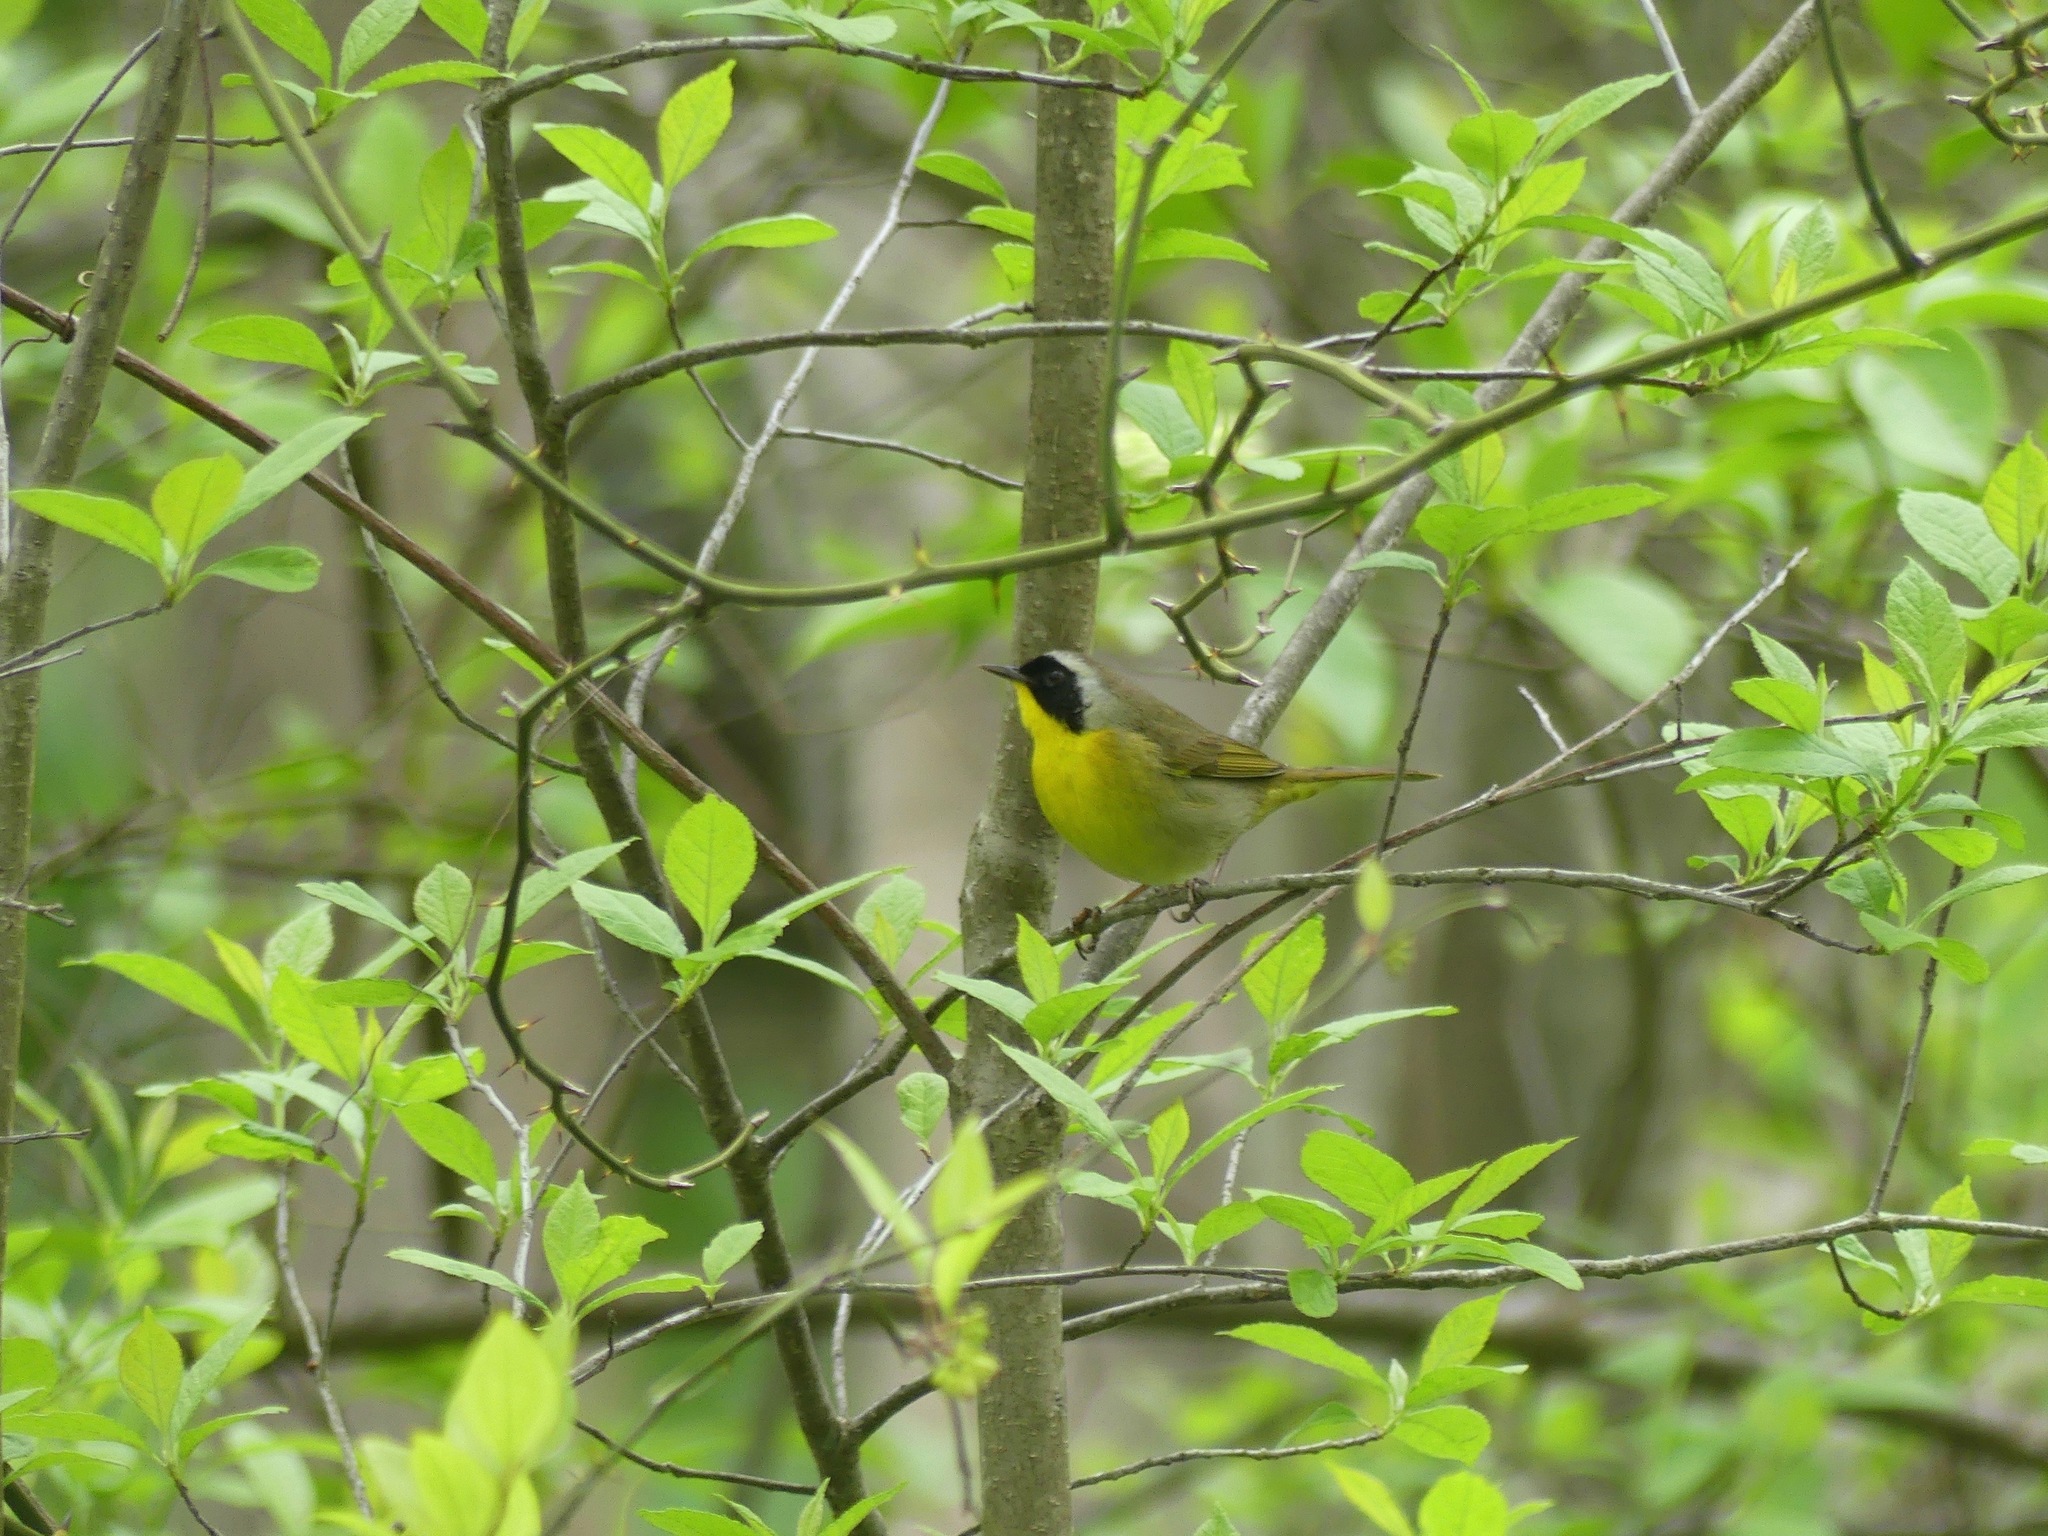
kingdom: Animalia
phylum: Chordata
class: Aves
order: Passeriformes
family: Parulidae
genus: Geothlypis
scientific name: Geothlypis trichas
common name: Common yellowthroat
